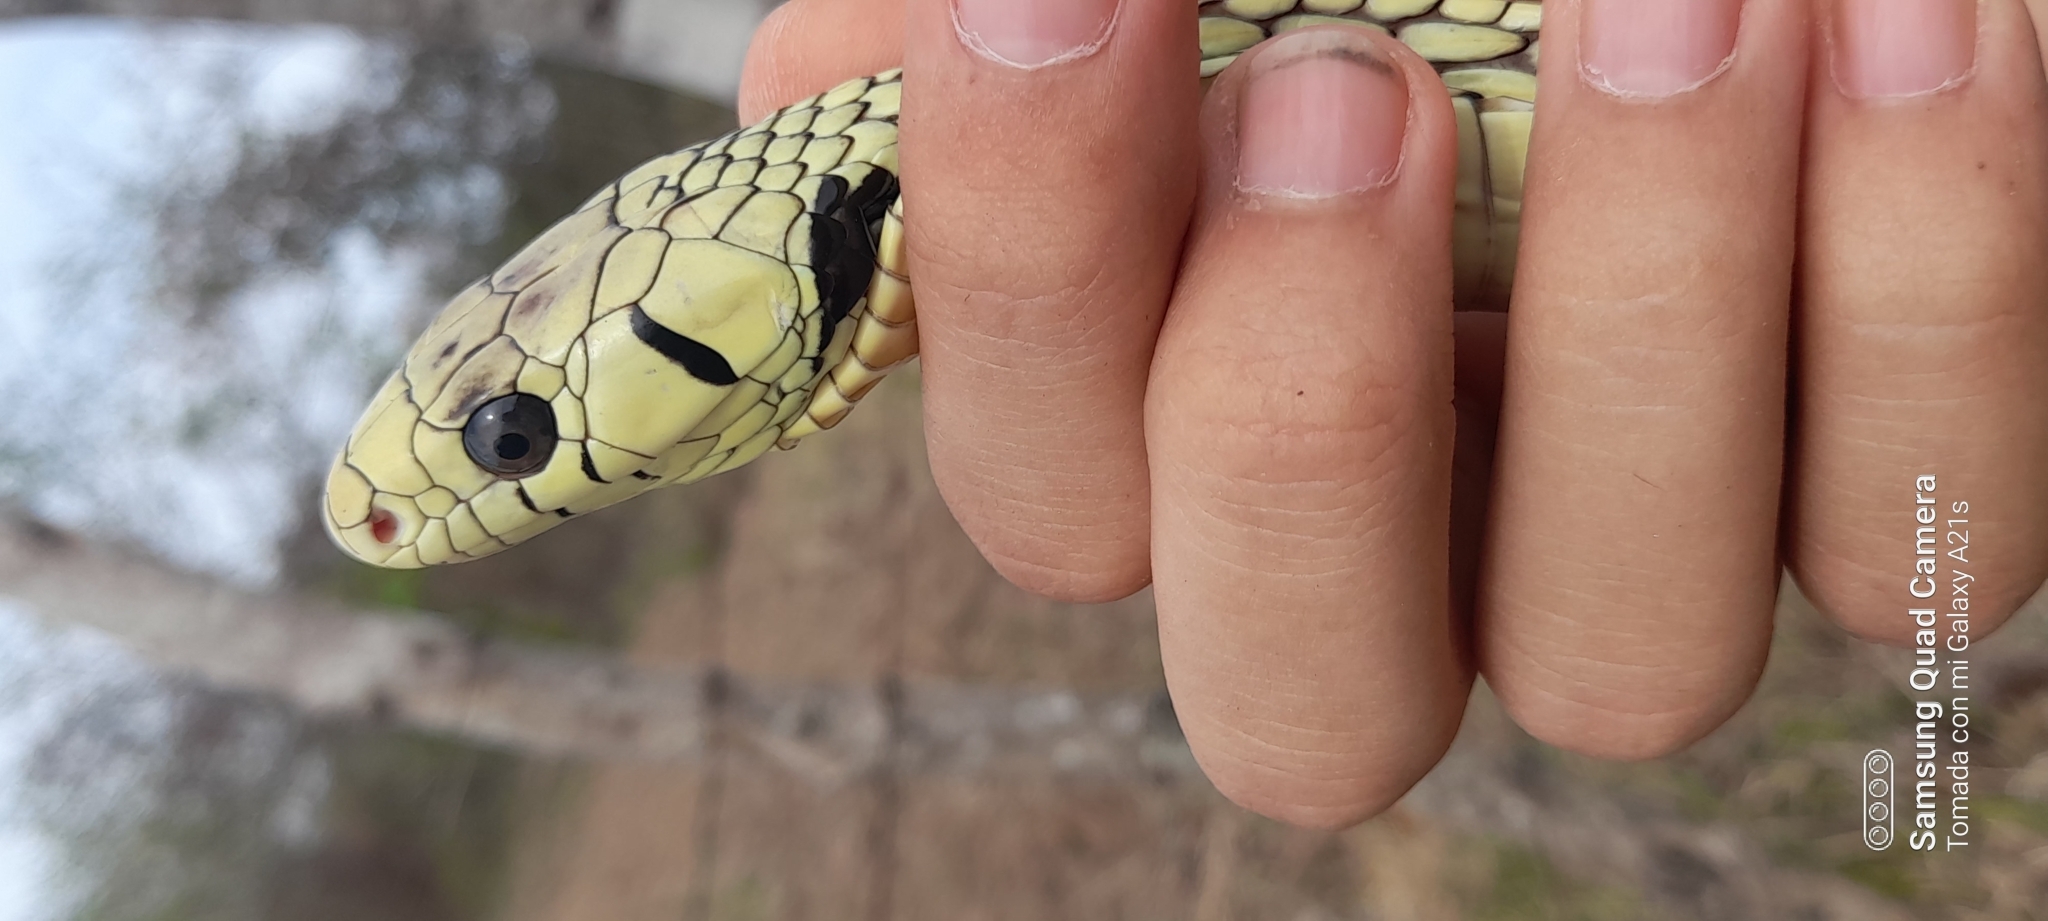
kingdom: Animalia
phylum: Chordata
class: Squamata
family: Colubridae
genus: Spilotes
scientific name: Spilotes pullatus
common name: Chicken snake
